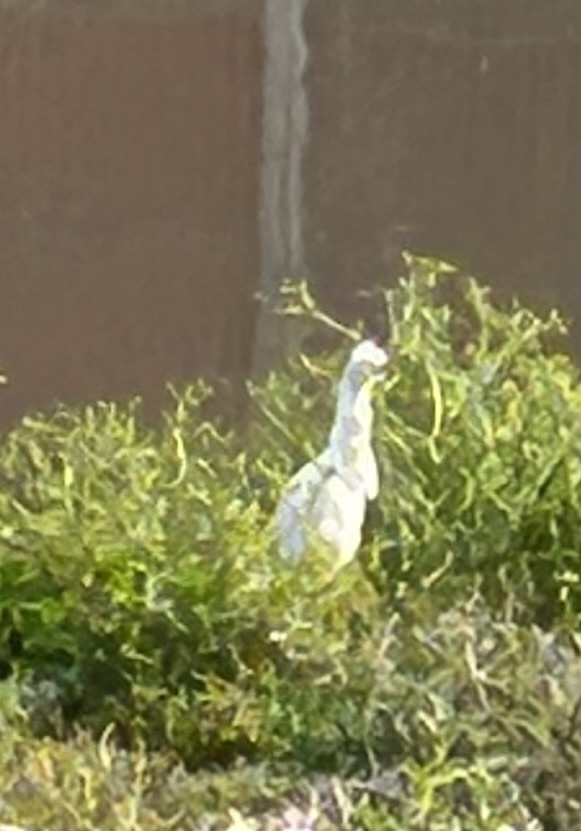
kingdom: Animalia
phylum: Chordata
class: Aves
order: Pelecaniformes
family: Ardeidae
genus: Bubulcus
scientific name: Bubulcus coromandus
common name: Eastern cattle egret
